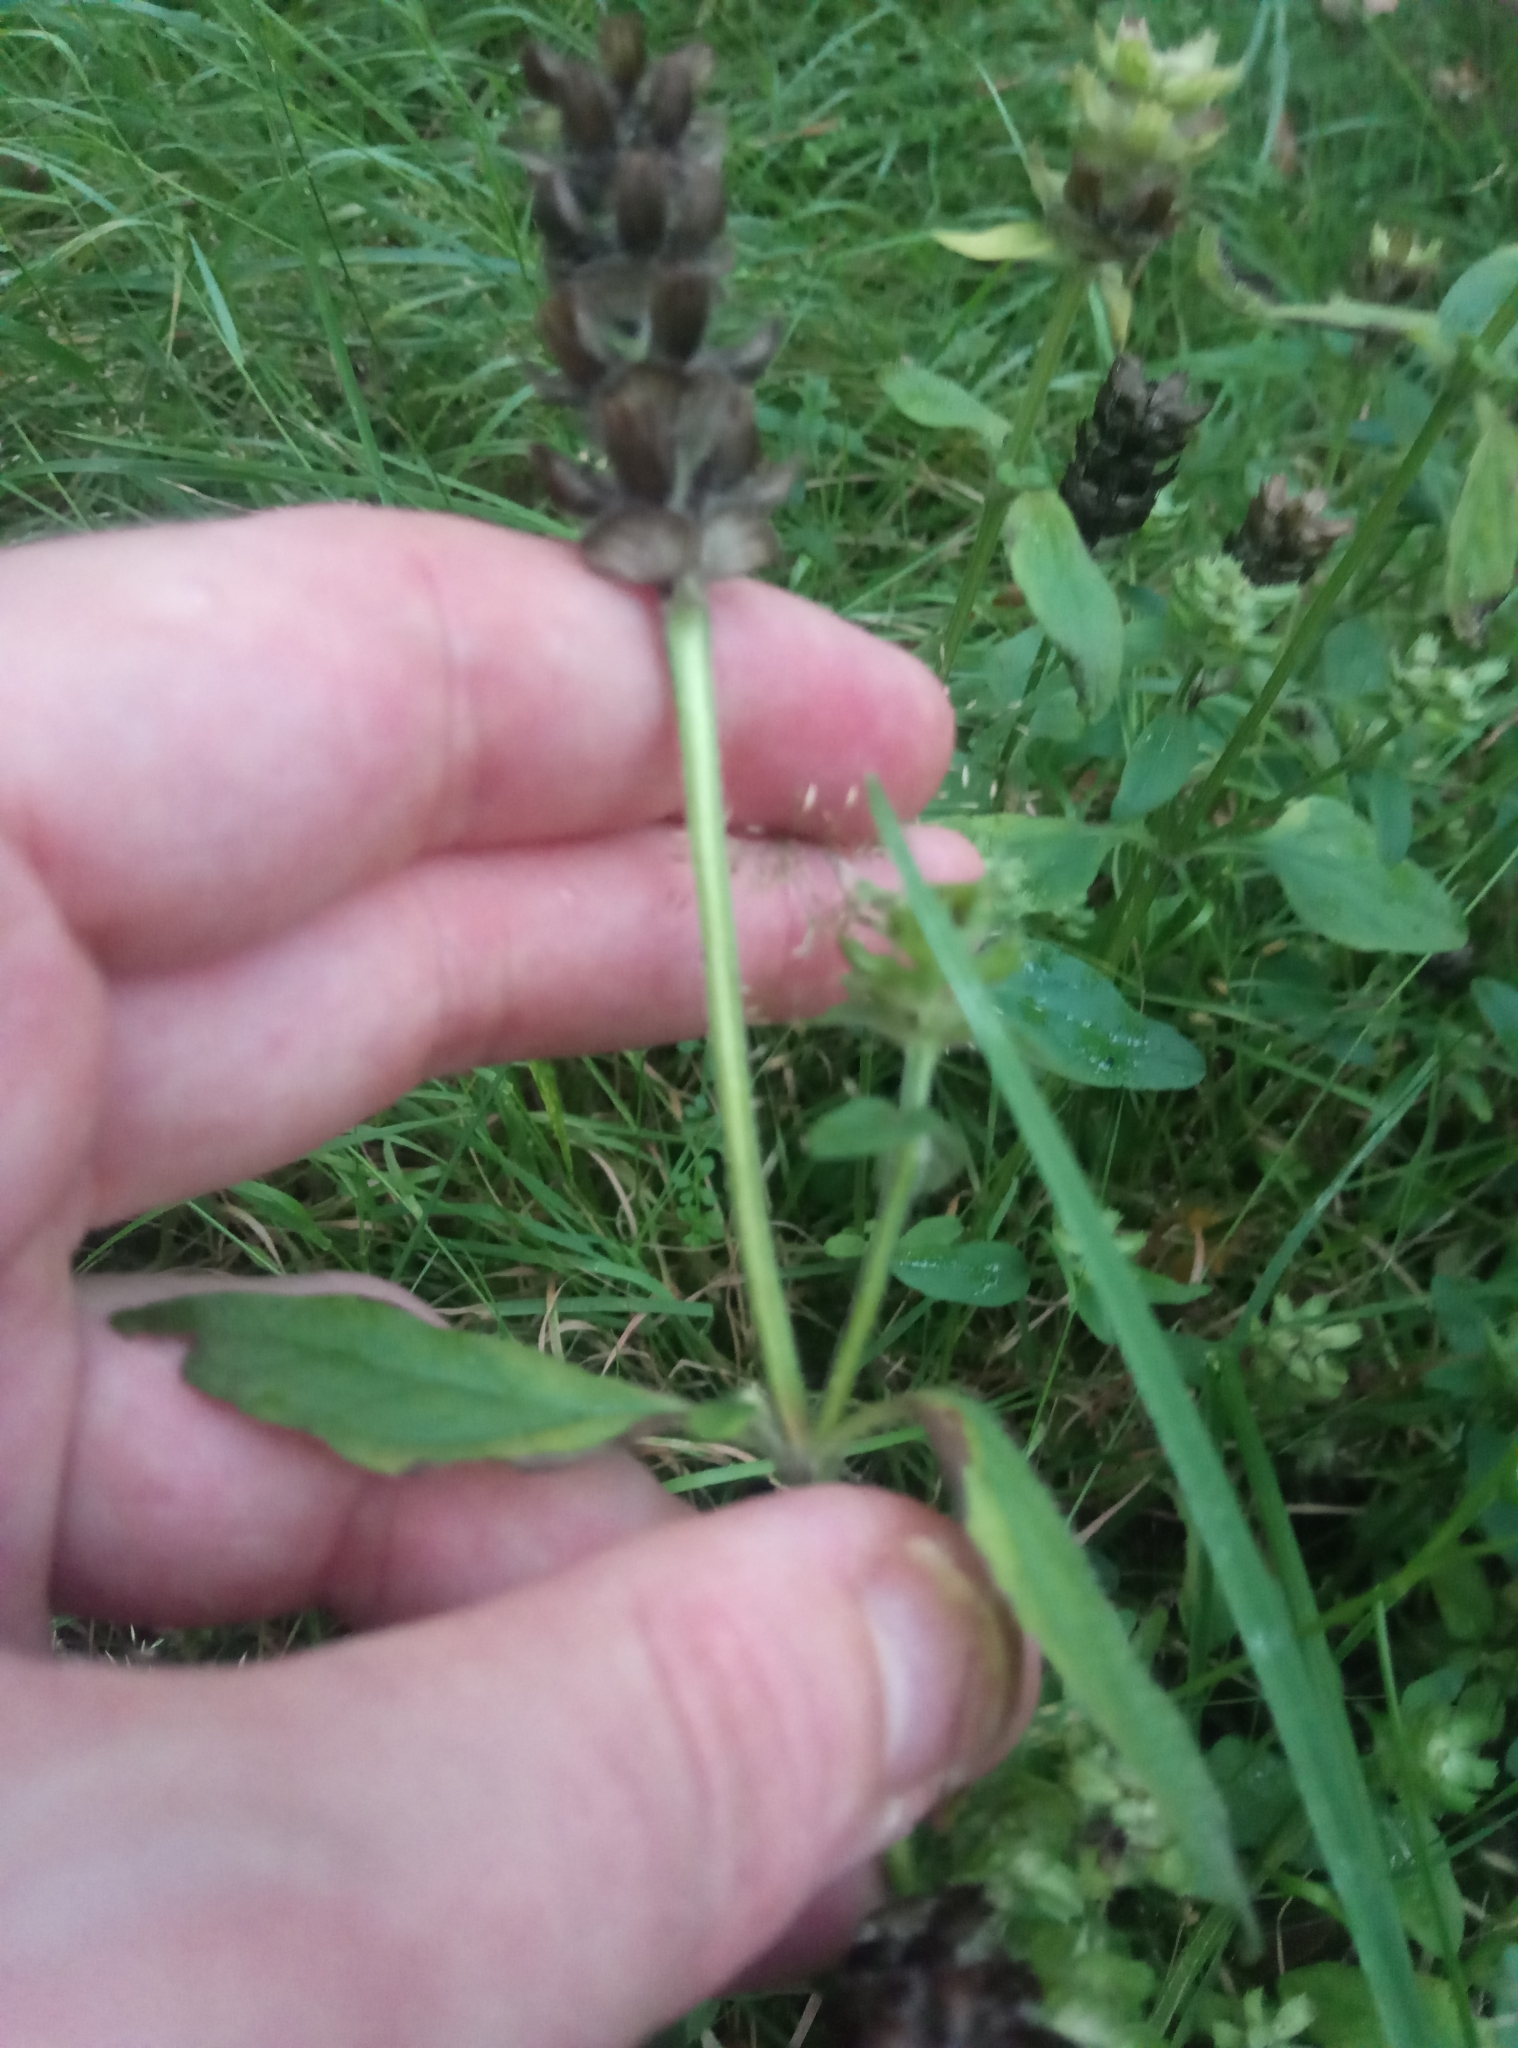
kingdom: Plantae
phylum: Tracheophyta
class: Magnoliopsida
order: Lamiales
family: Lamiaceae
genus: Prunella
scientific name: Prunella vulgaris
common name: Heal-all
